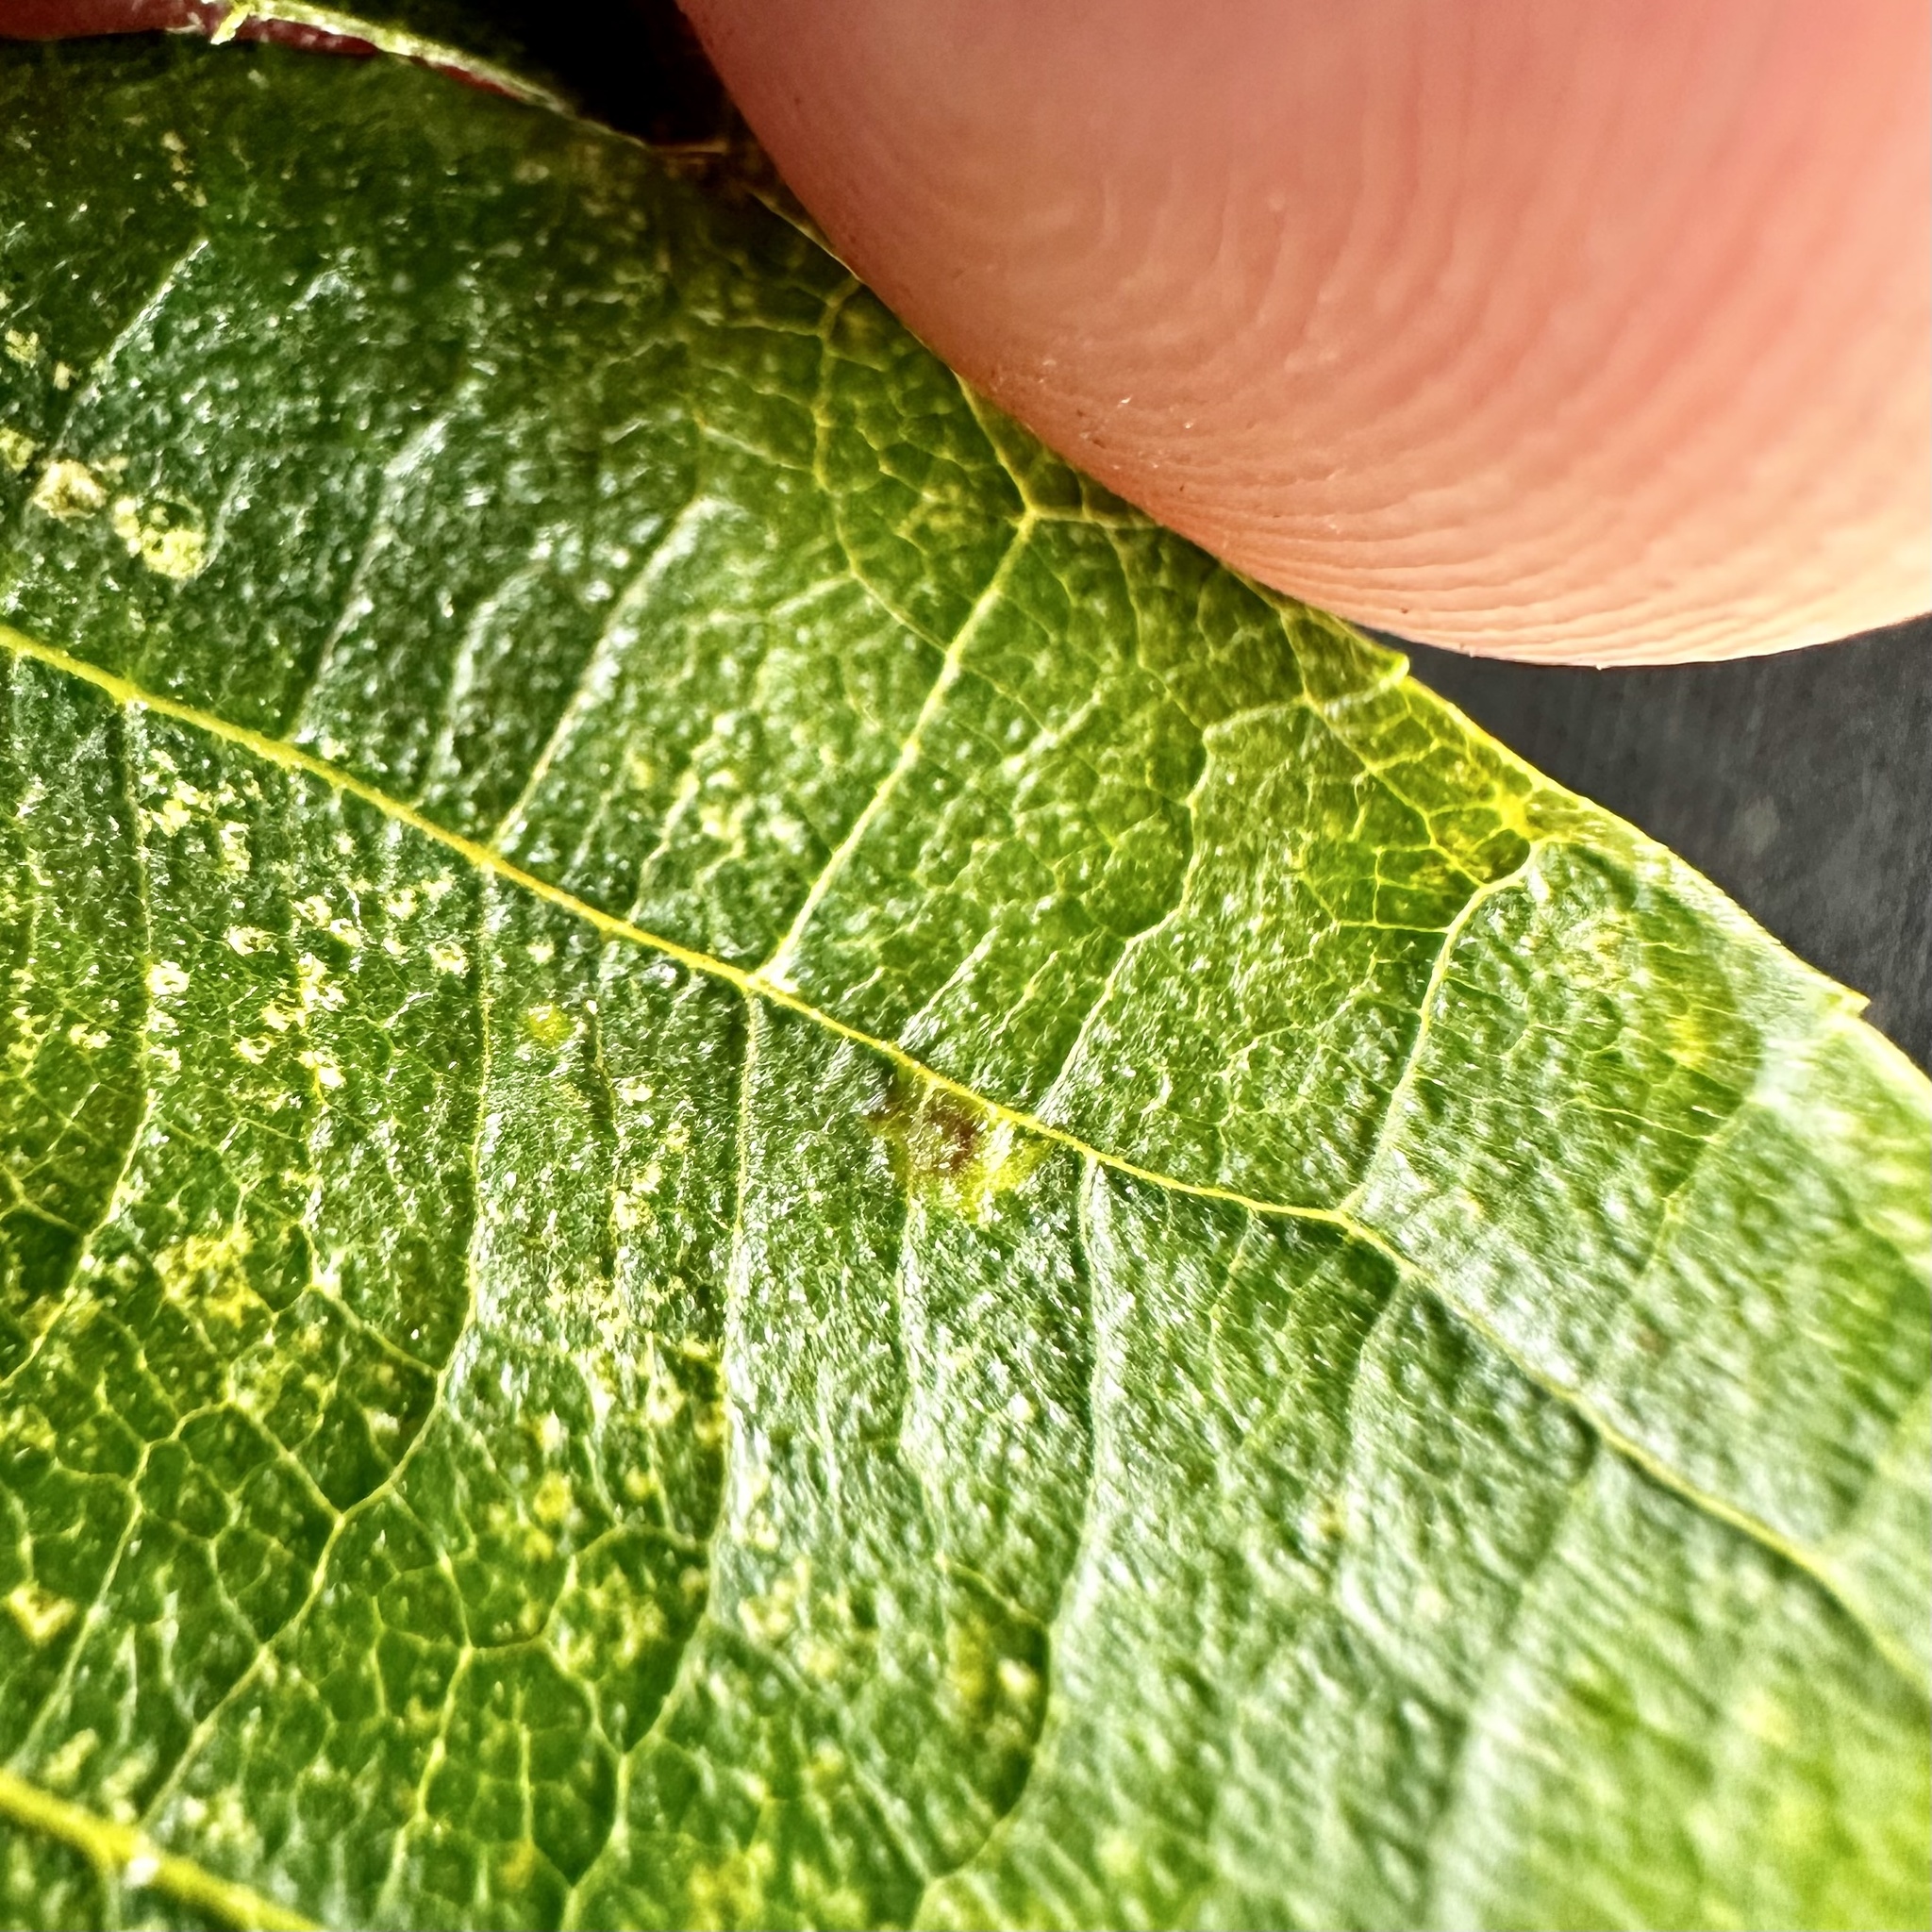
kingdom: Animalia
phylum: Arthropoda
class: Insecta
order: Diptera
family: Cecidomyiidae
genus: Caryomyia
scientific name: Caryomyia caryae
